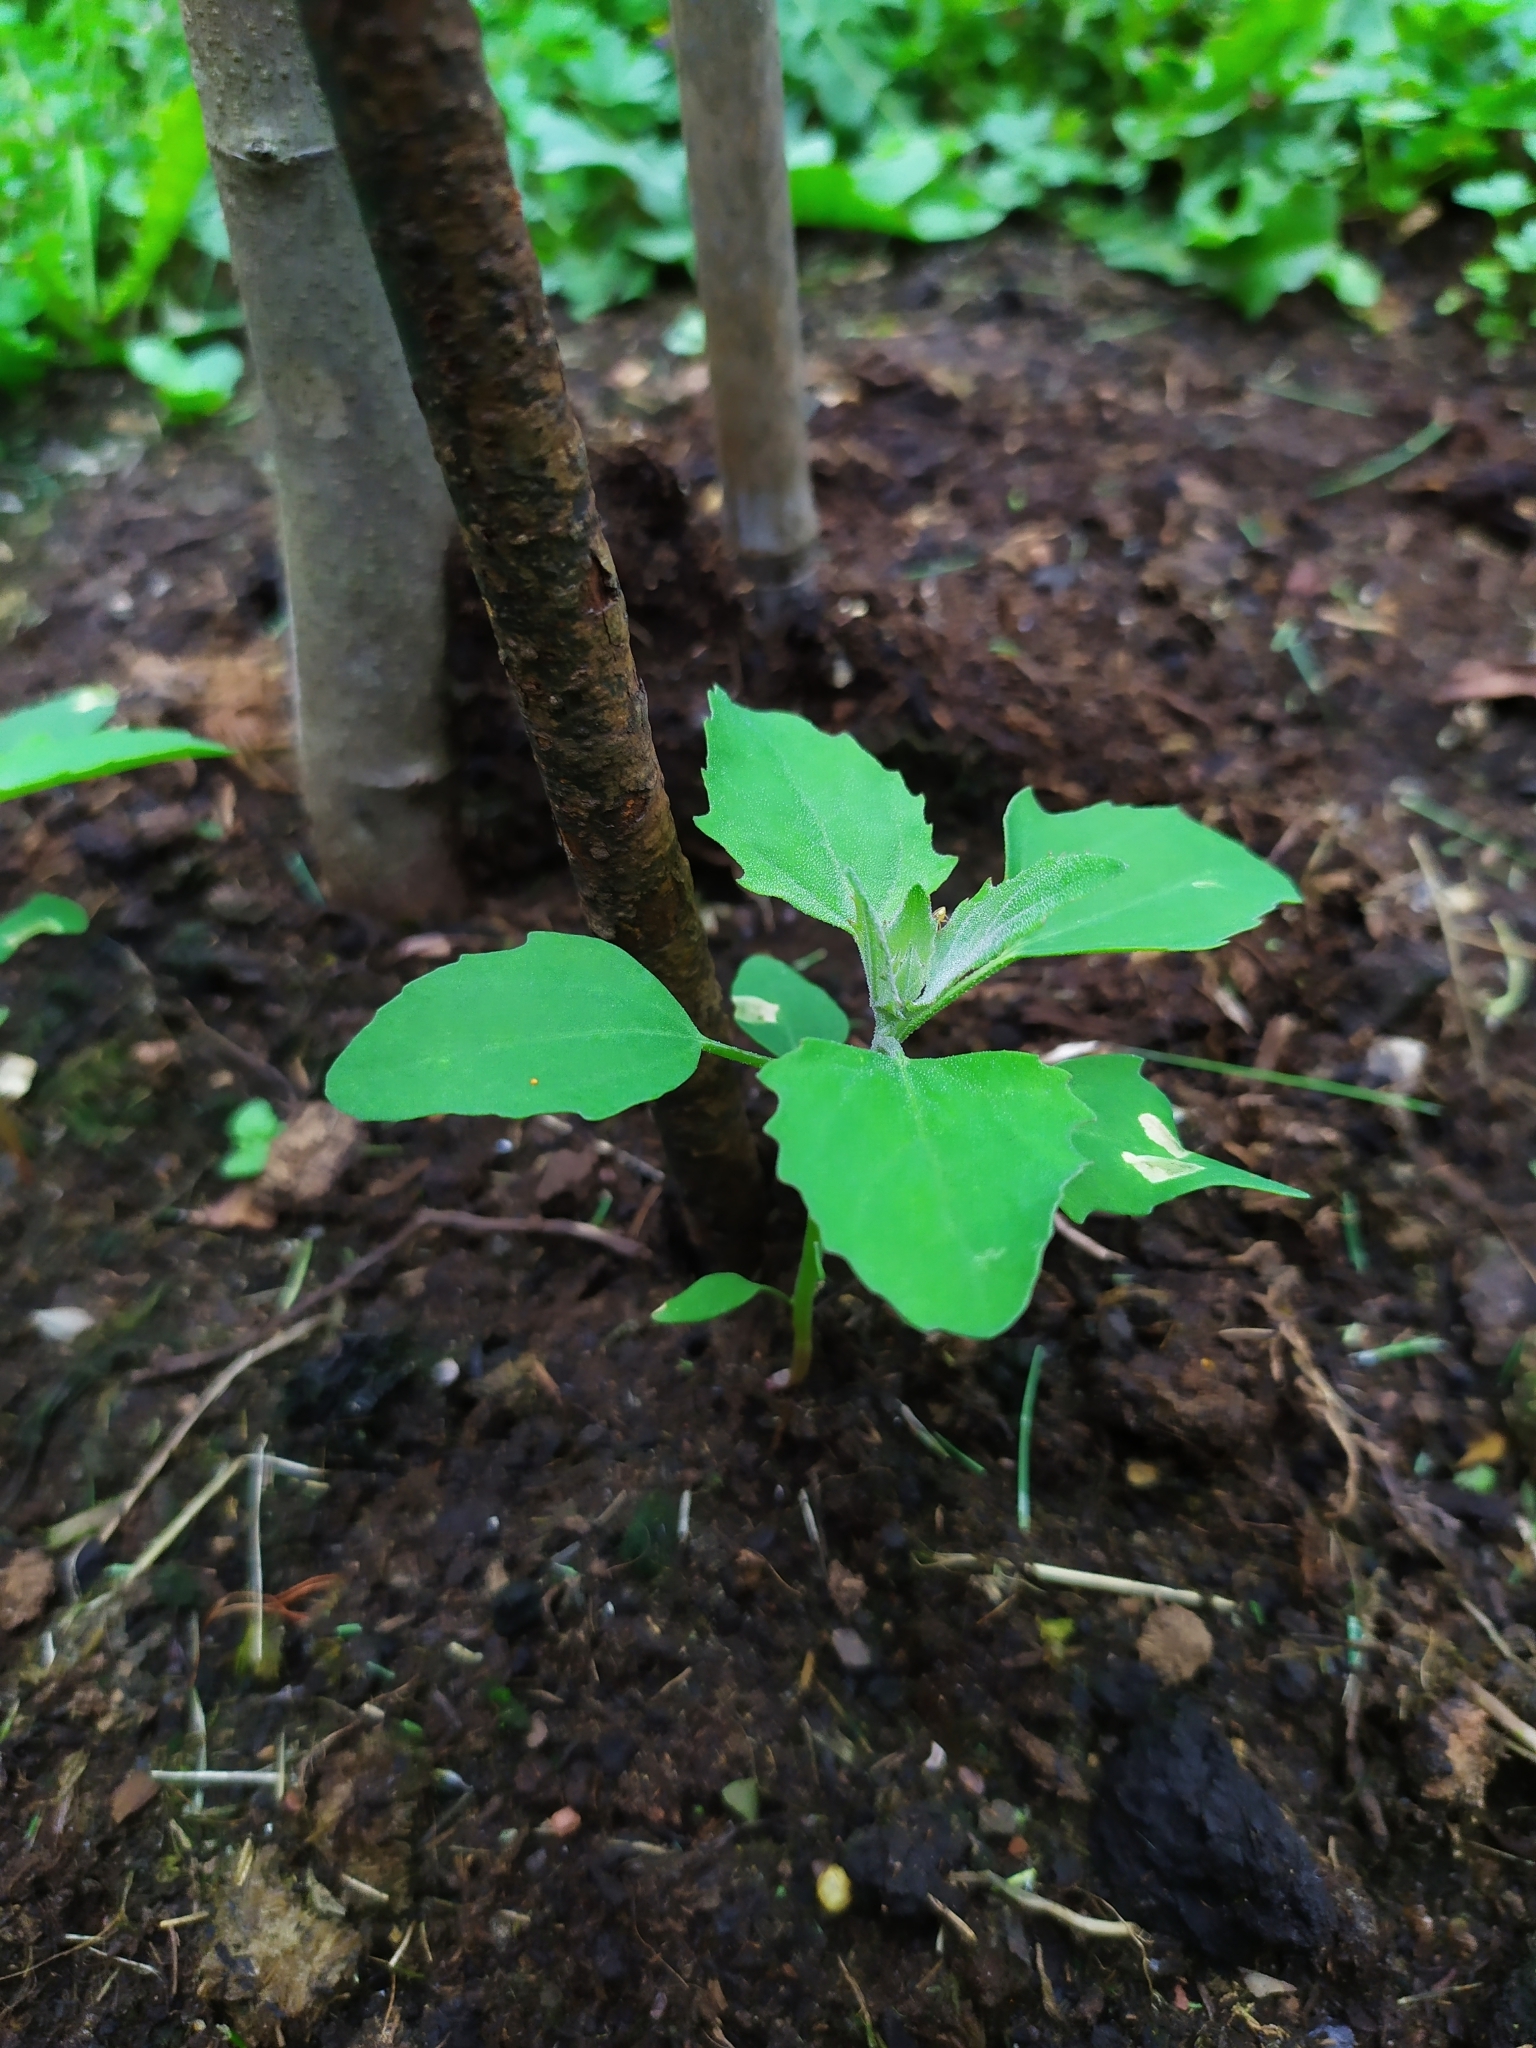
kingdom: Plantae
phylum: Tracheophyta
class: Magnoliopsida
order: Caryophyllales
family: Amaranthaceae
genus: Chenopodium
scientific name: Chenopodium album
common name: Fat-hen
